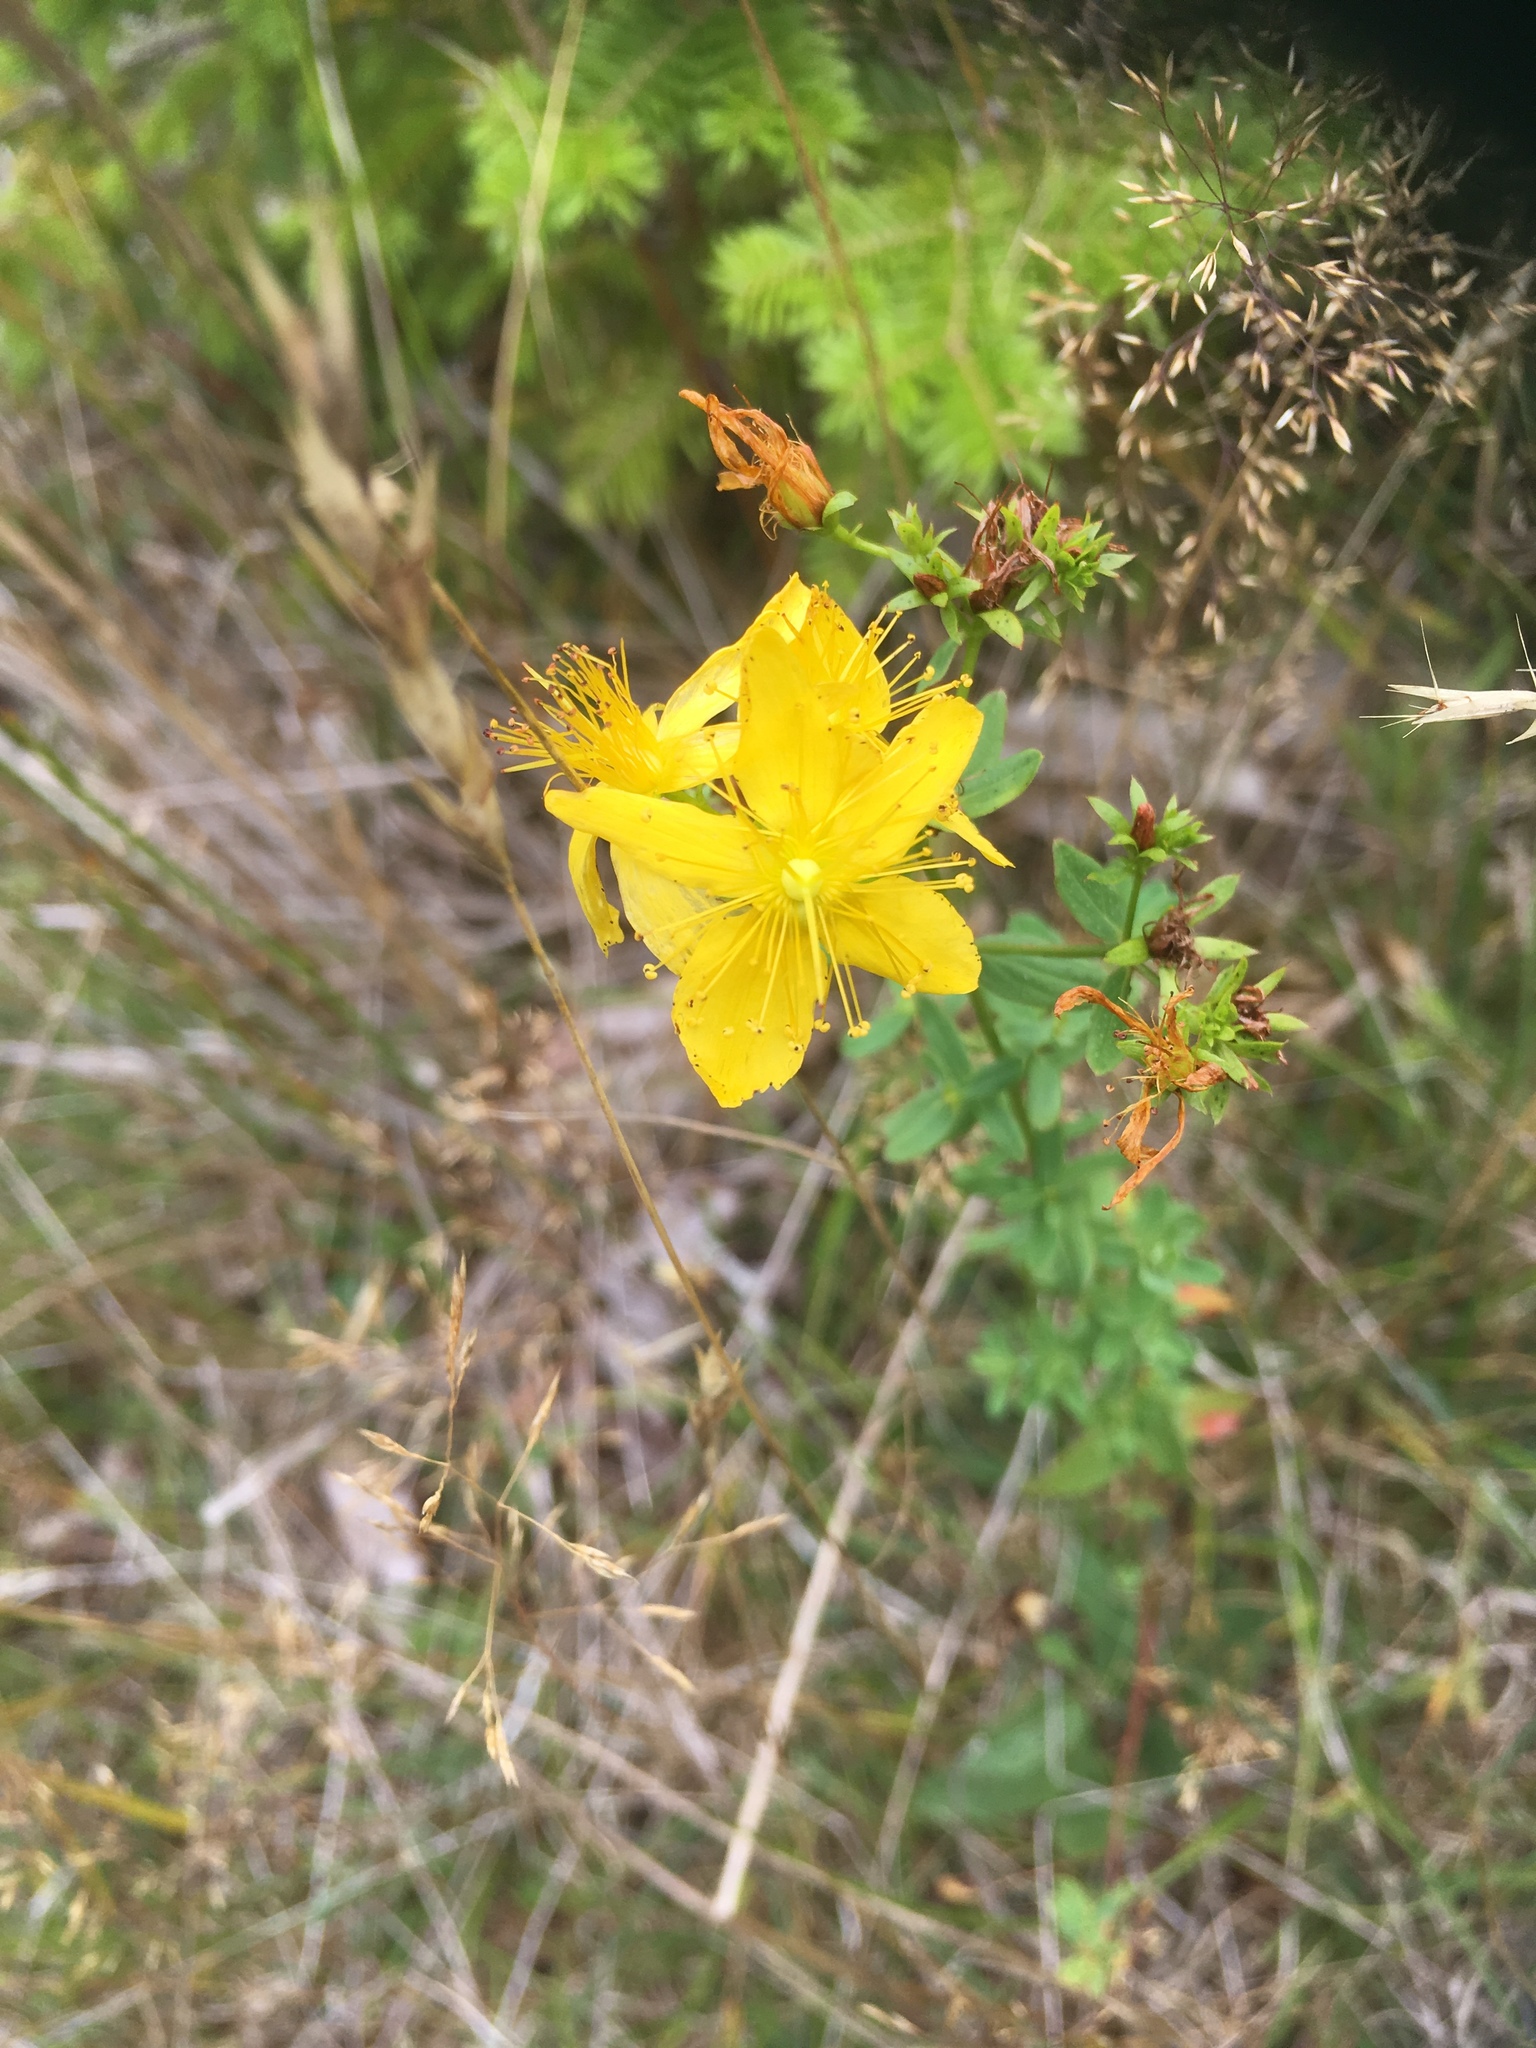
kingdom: Plantae
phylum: Tracheophyta
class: Magnoliopsida
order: Malpighiales
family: Hypericaceae
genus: Hypericum
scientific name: Hypericum perforatum
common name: Common st. johnswort
